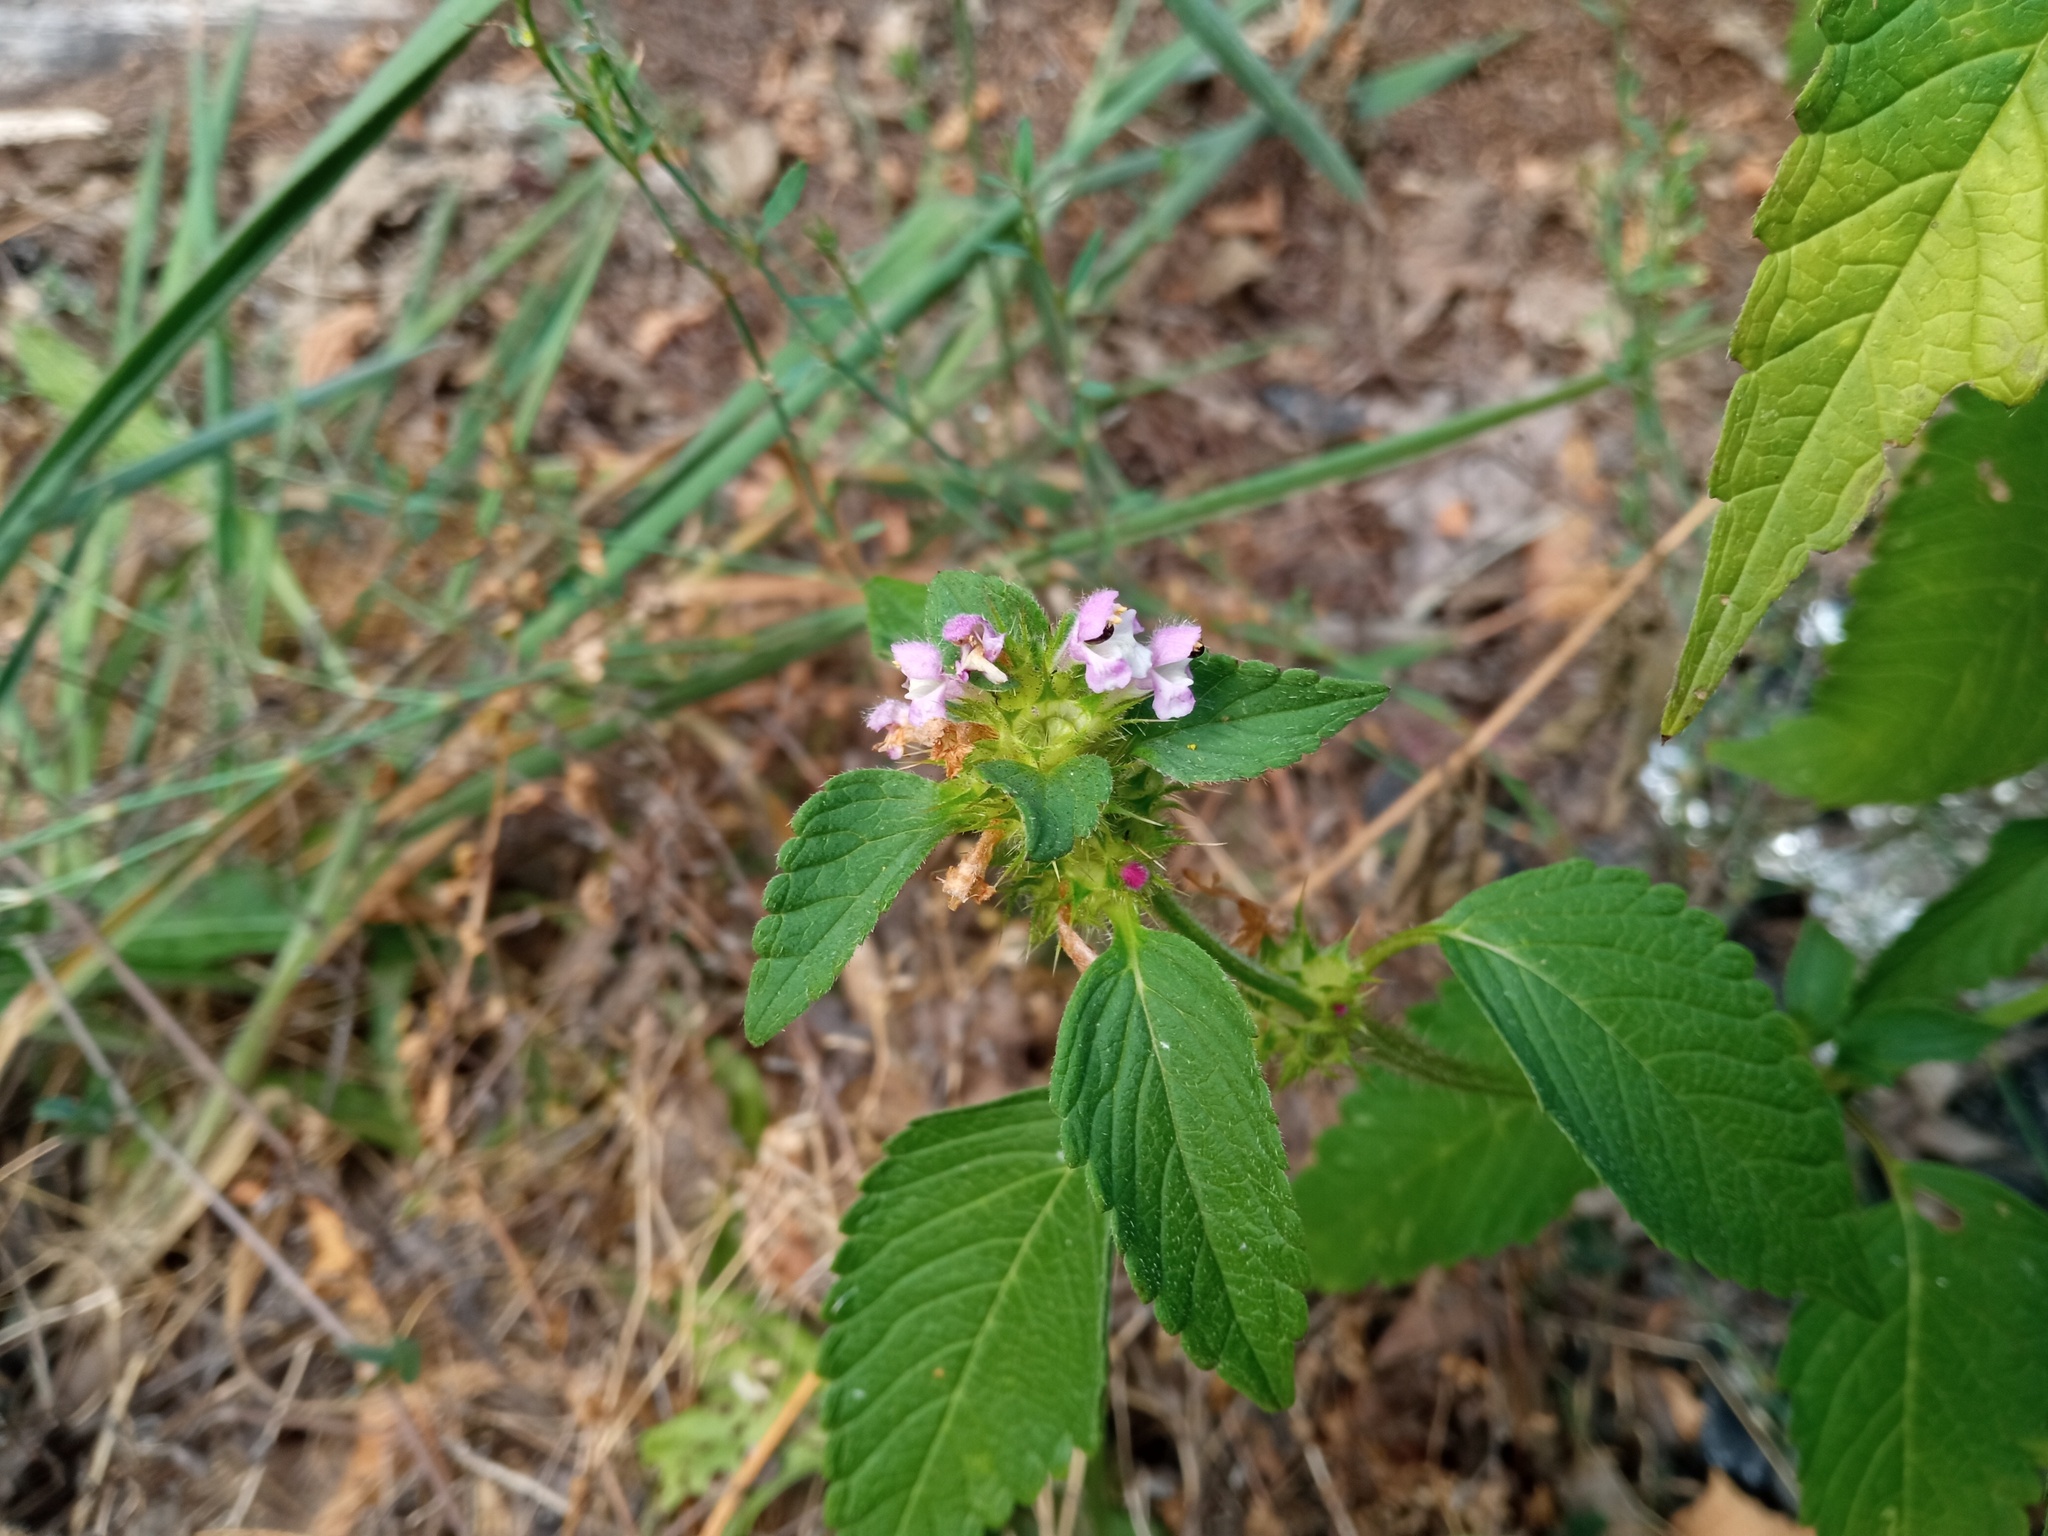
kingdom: Plantae
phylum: Tracheophyta
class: Magnoliopsida
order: Lamiales
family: Lamiaceae
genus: Galeopsis
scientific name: Galeopsis tetrahit
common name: Common hemp-nettle
